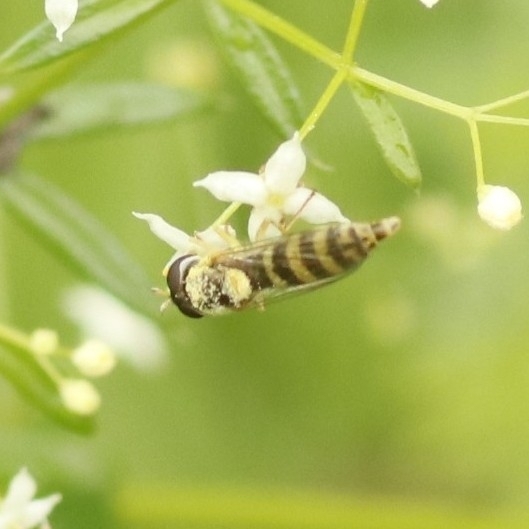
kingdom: Animalia
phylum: Arthropoda
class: Insecta
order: Diptera
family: Syrphidae
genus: Sphaerophoria
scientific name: Sphaerophoria
